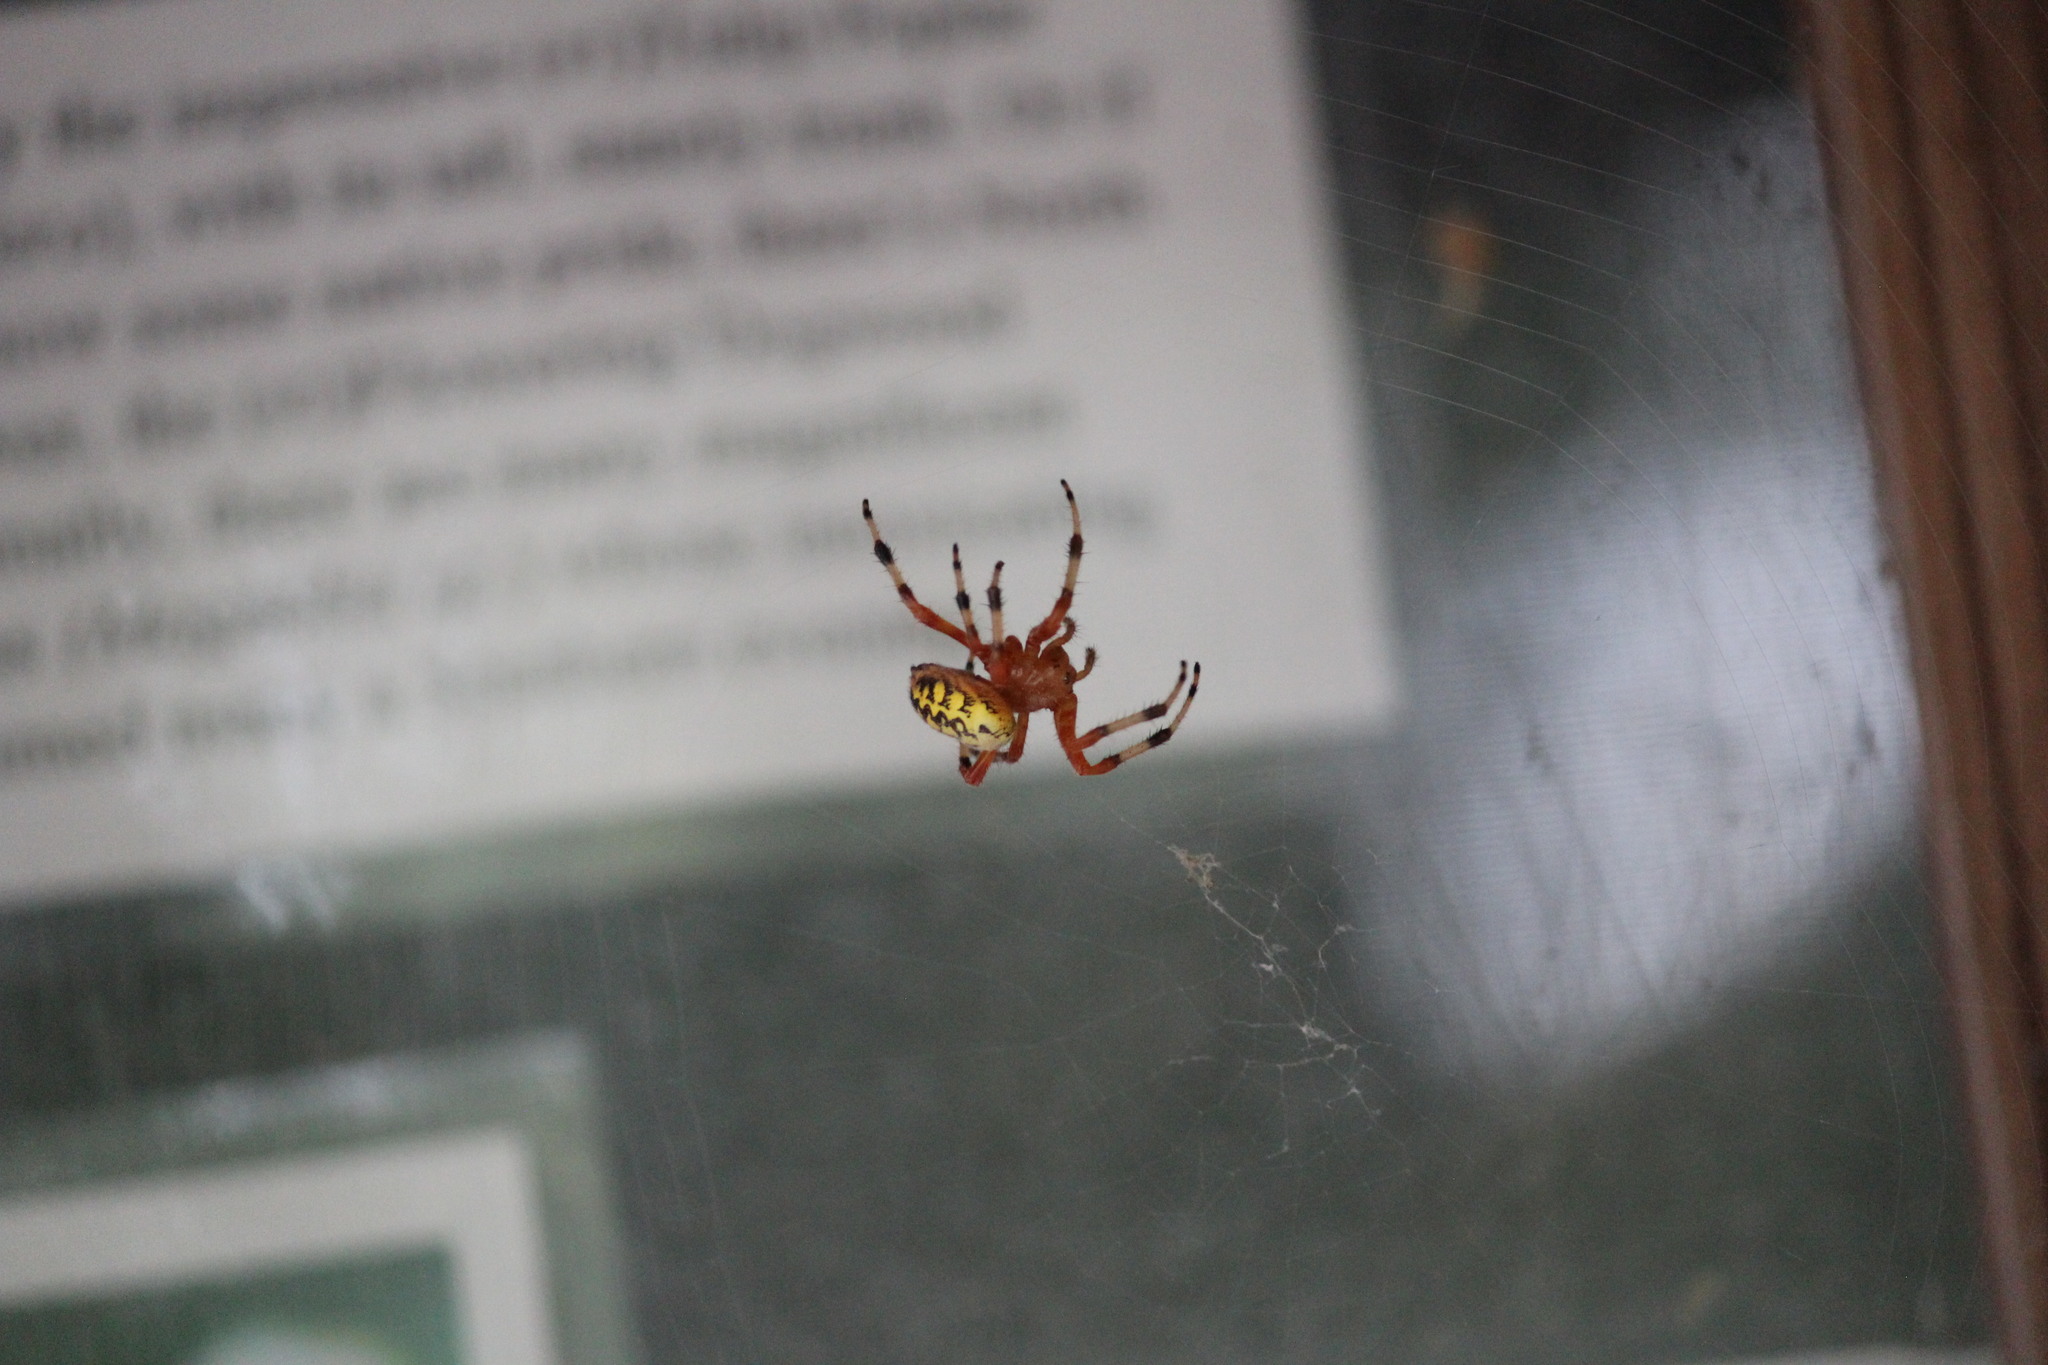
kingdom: Animalia
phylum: Arthropoda
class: Arachnida
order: Araneae
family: Araneidae
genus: Araneus
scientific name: Araneus marmoreus
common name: Marbled orbweaver
